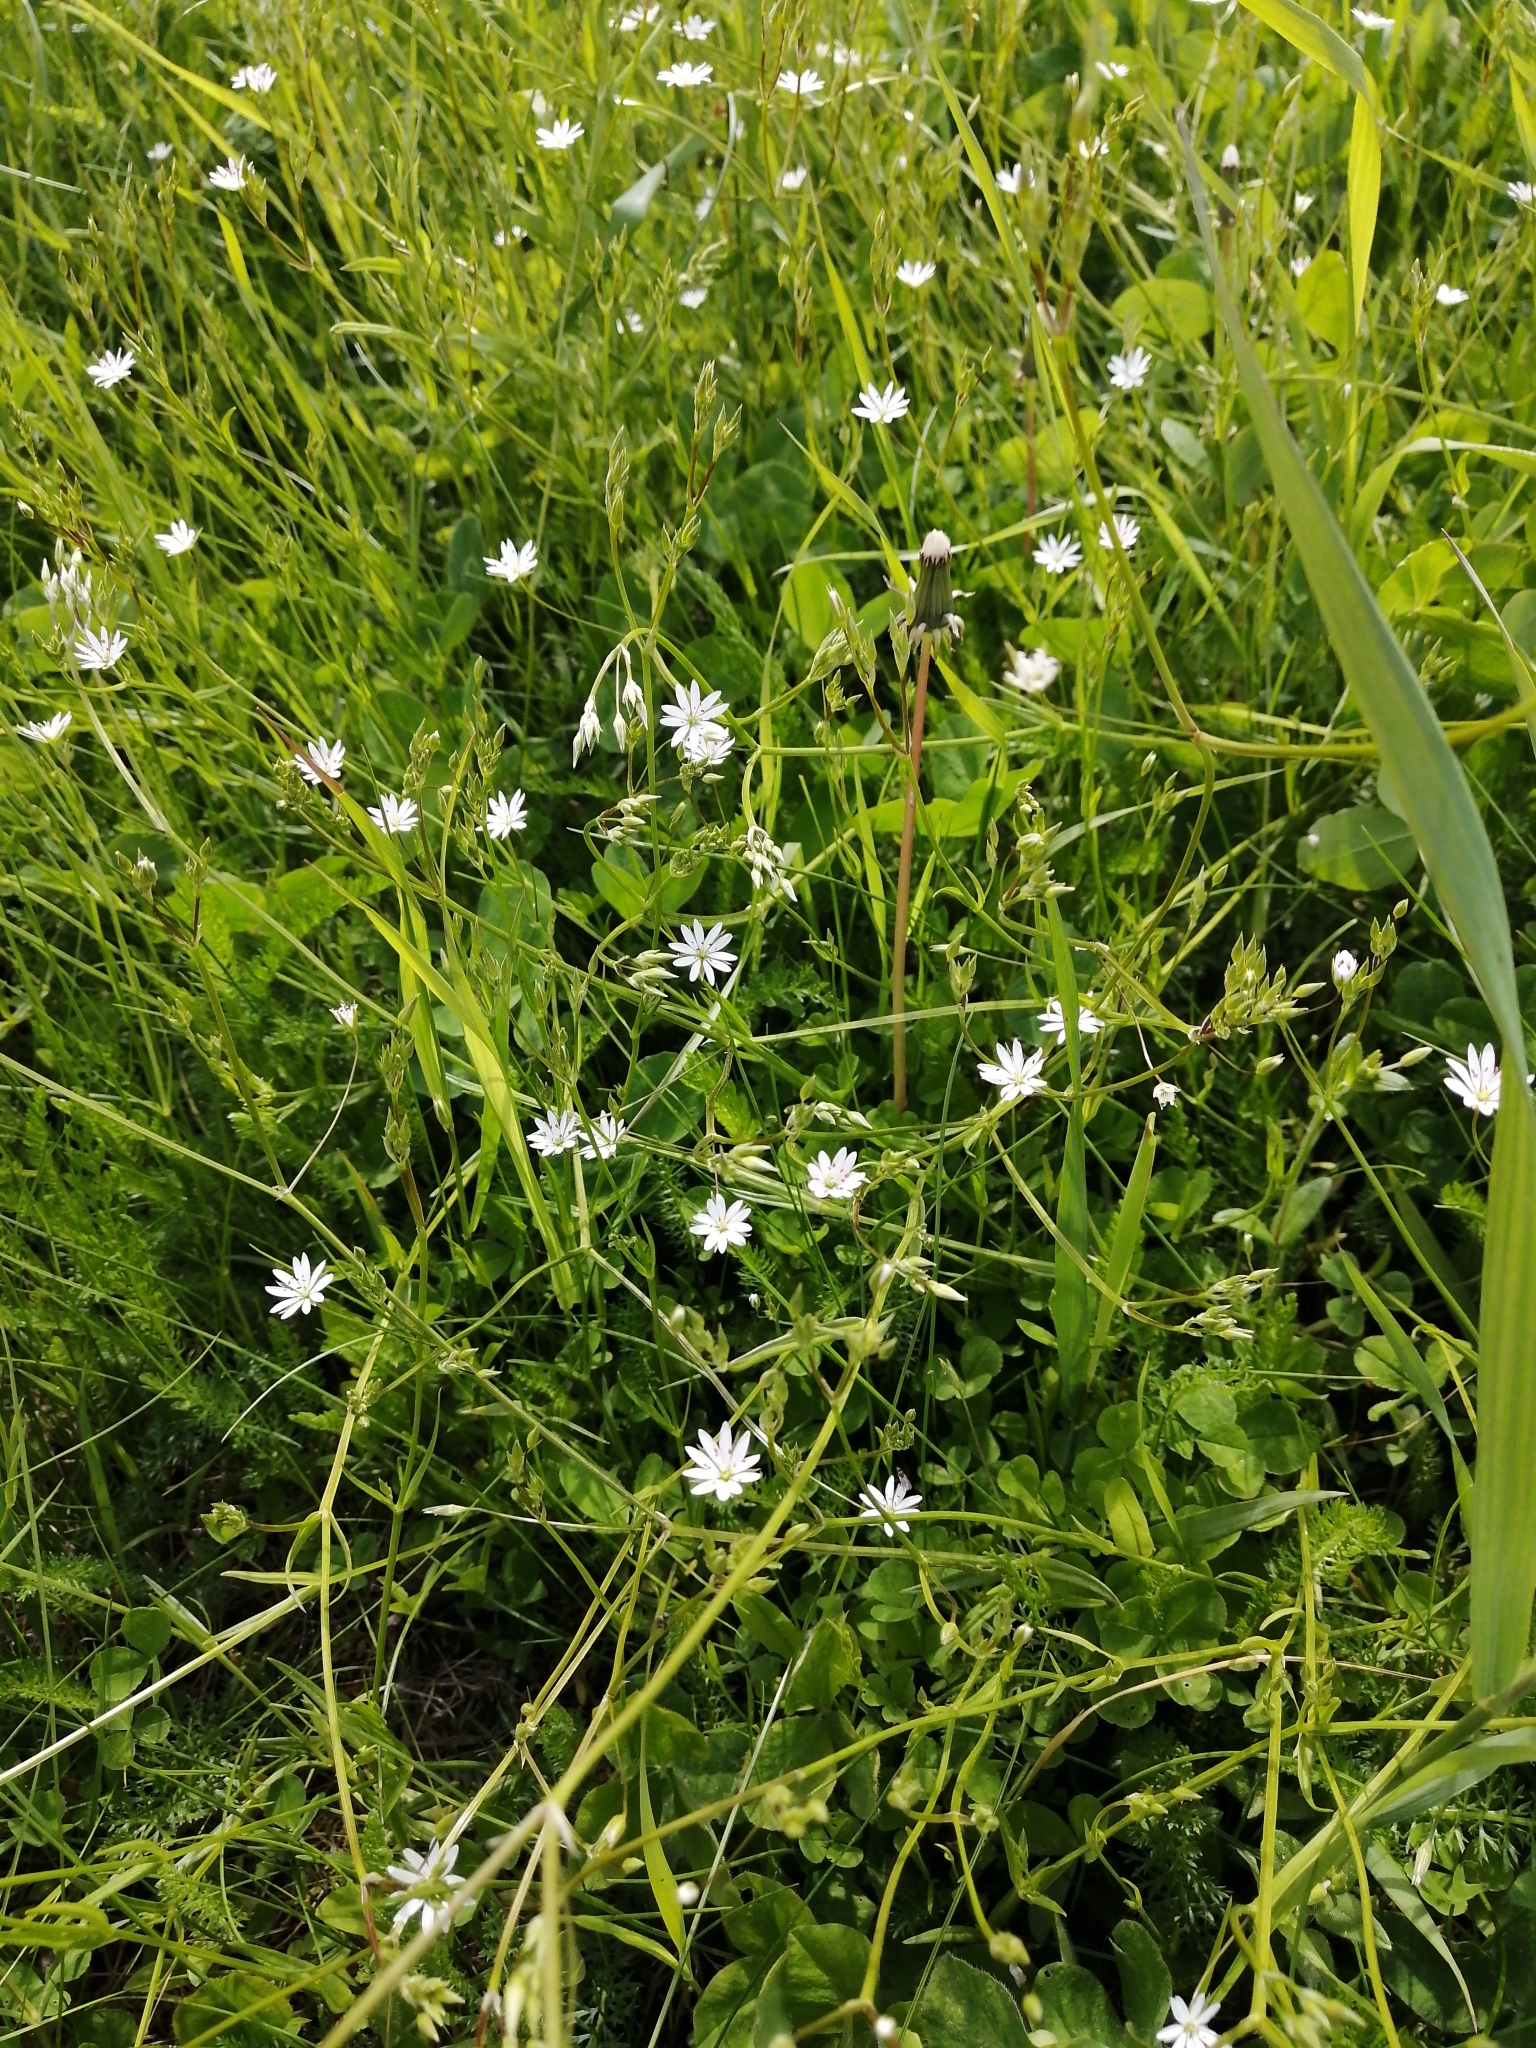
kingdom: Plantae
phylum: Tracheophyta
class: Magnoliopsida
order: Caryophyllales
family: Caryophyllaceae
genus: Stellaria
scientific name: Stellaria graminea
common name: Grass-like starwort
